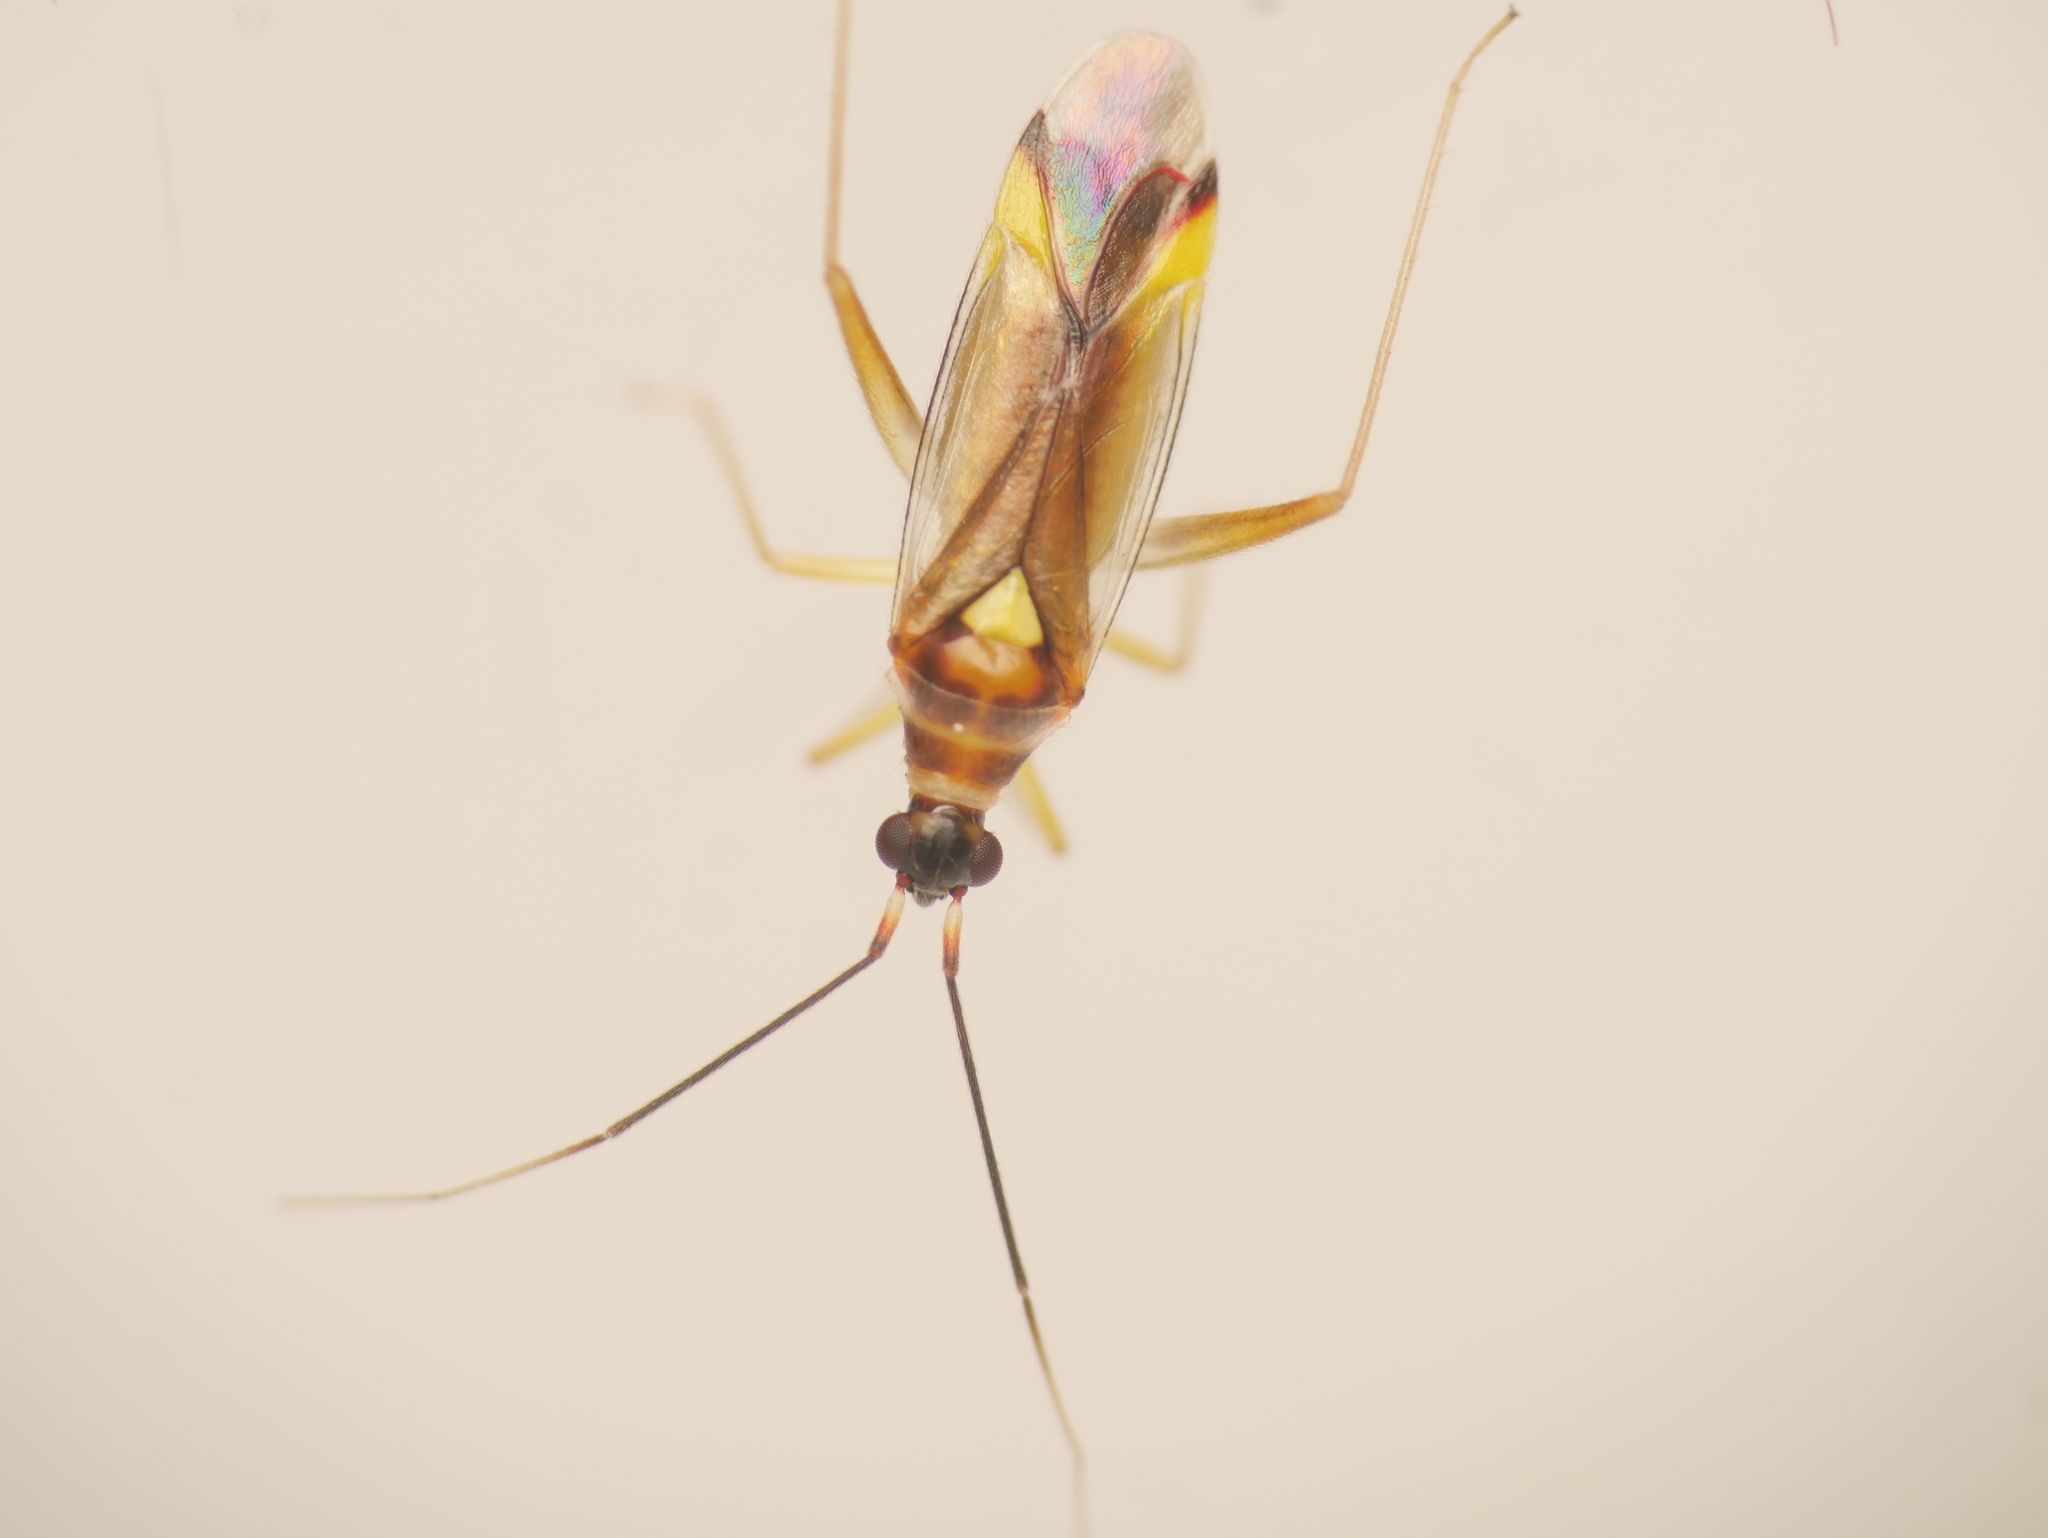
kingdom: Animalia
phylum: Arthropoda
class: Insecta
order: Hemiptera
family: Miridae
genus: Campyloneura
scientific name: Campyloneura virgula
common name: Predatory bug
